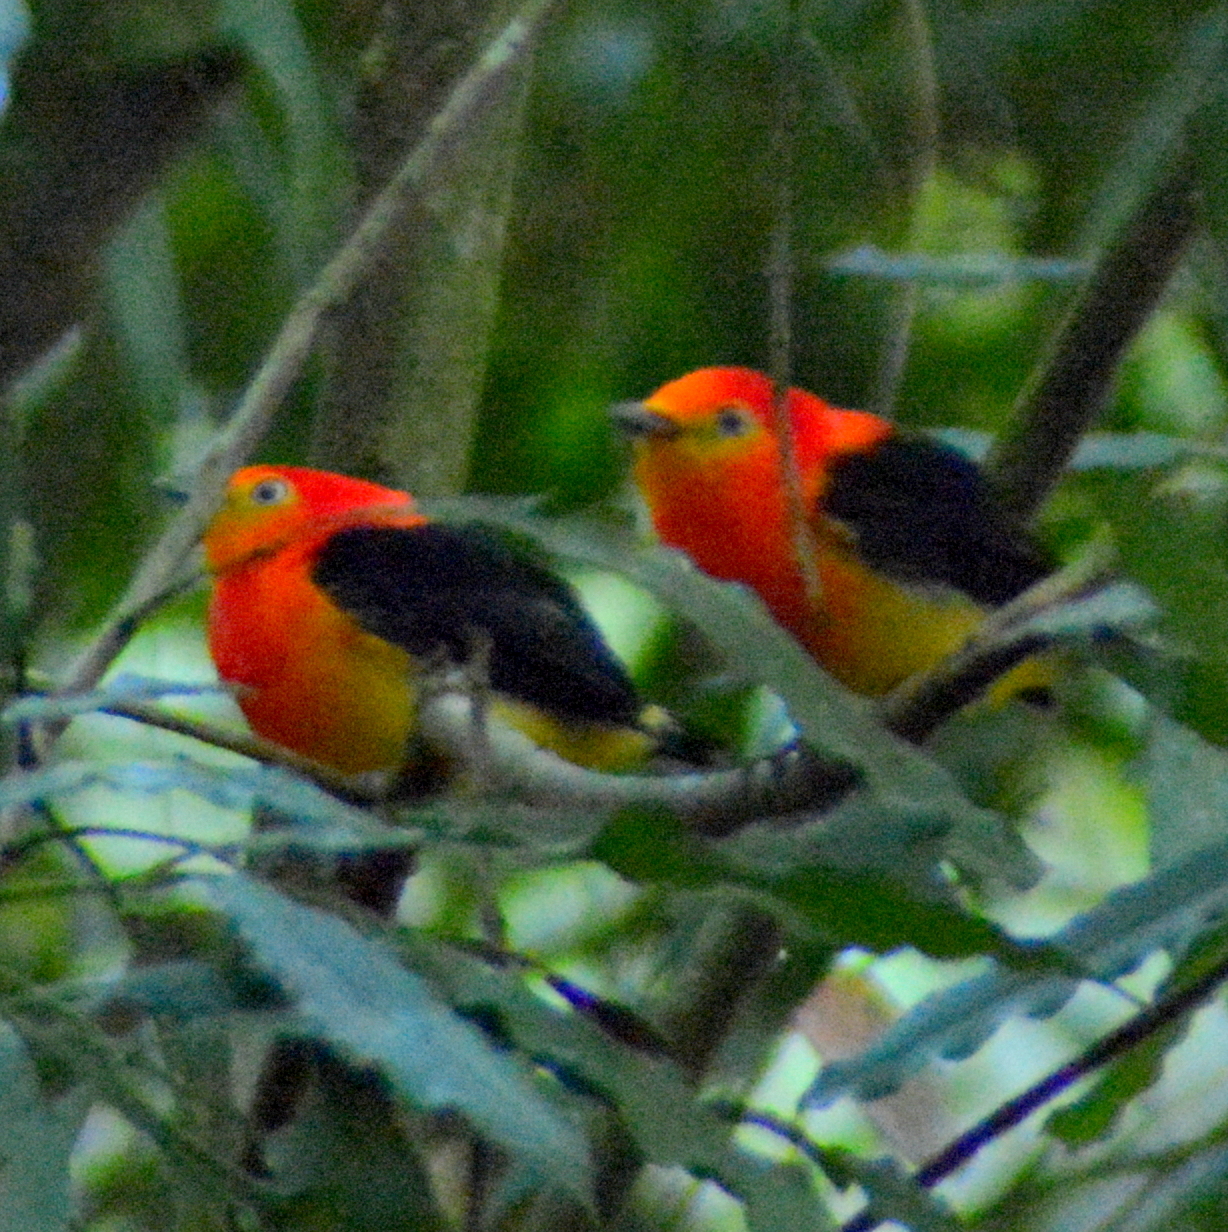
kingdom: Animalia
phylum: Chordata
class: Aves
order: Passeriformes
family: Pipridae
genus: Pipra
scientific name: Pipra fasciicauda
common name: Band-tailed manakin
